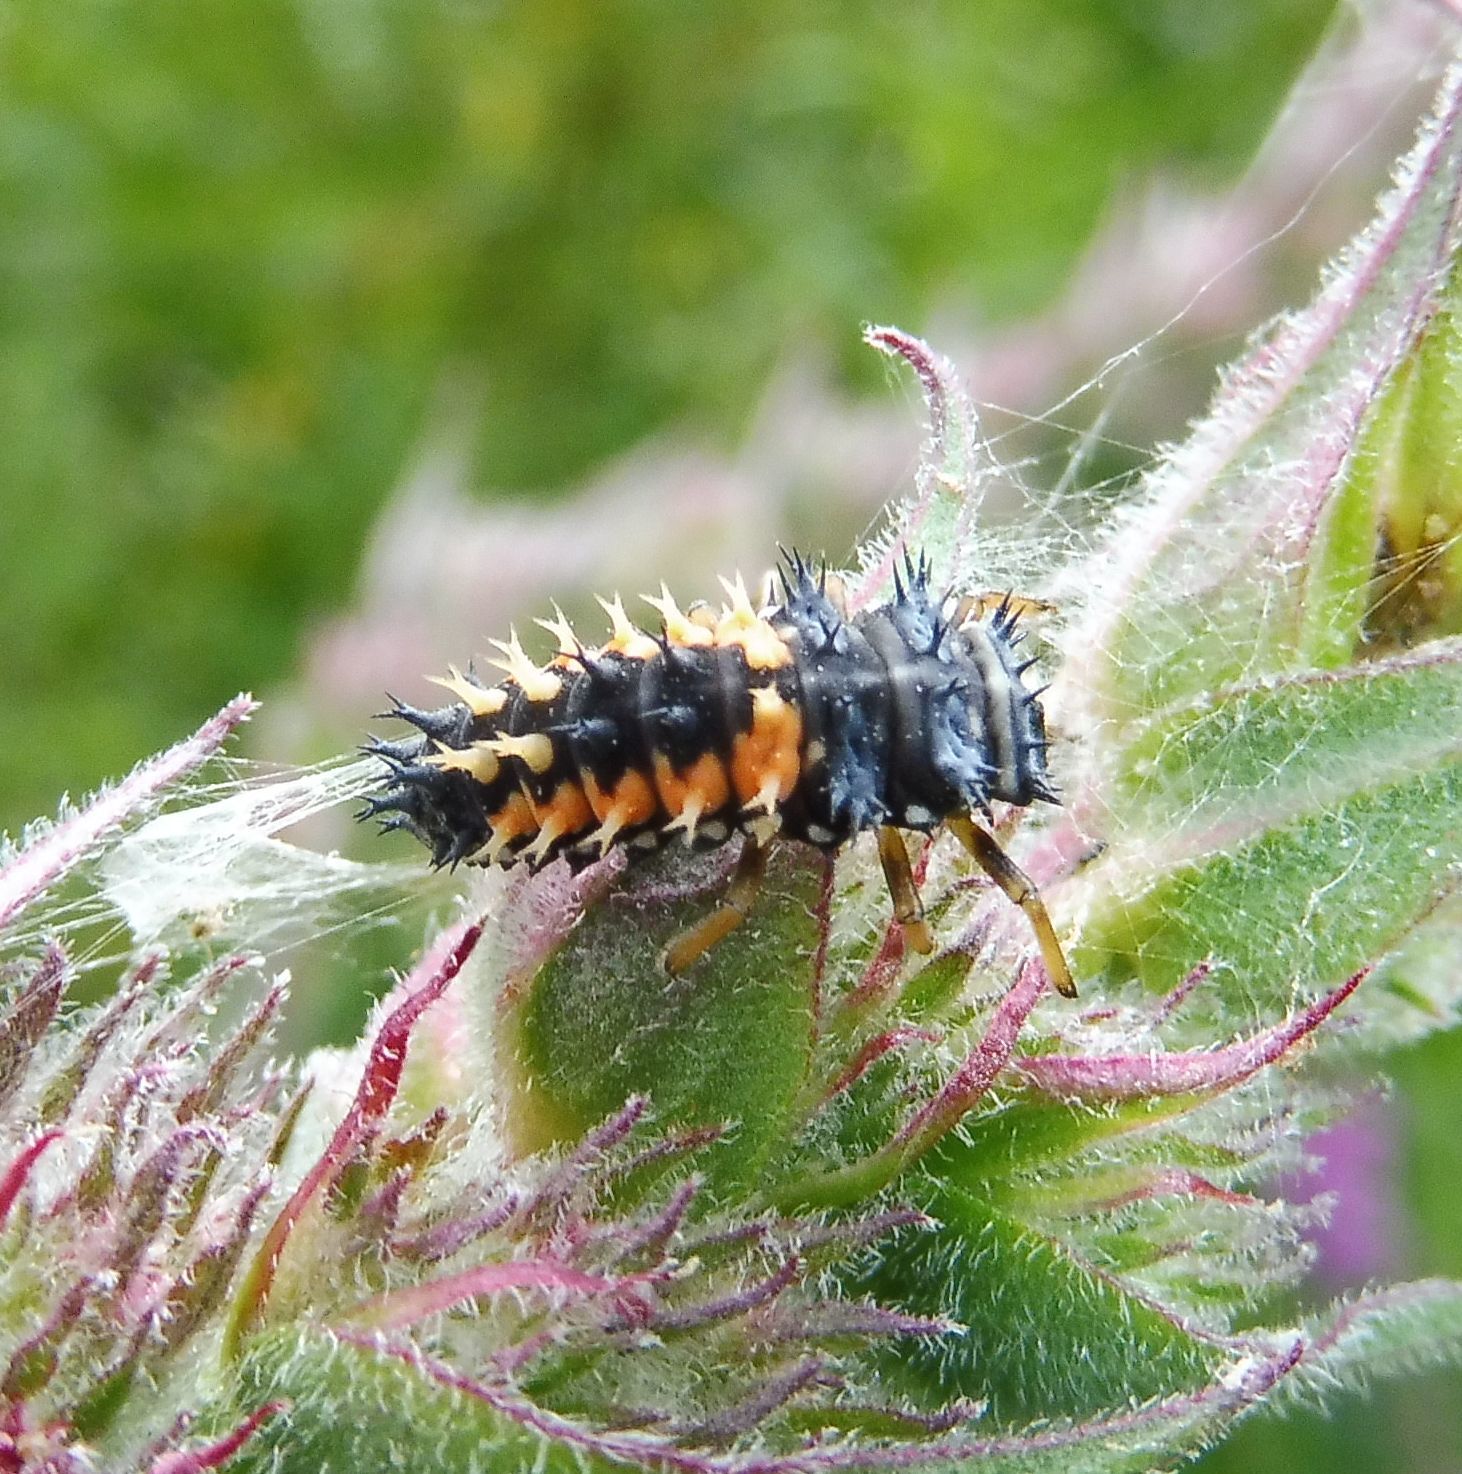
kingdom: Animalia
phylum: Arthropoda
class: Insecta
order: Coleoptera
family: Coccinellidae
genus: Harmonia
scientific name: Harmonia axyridis
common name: Harlequin ladybird
